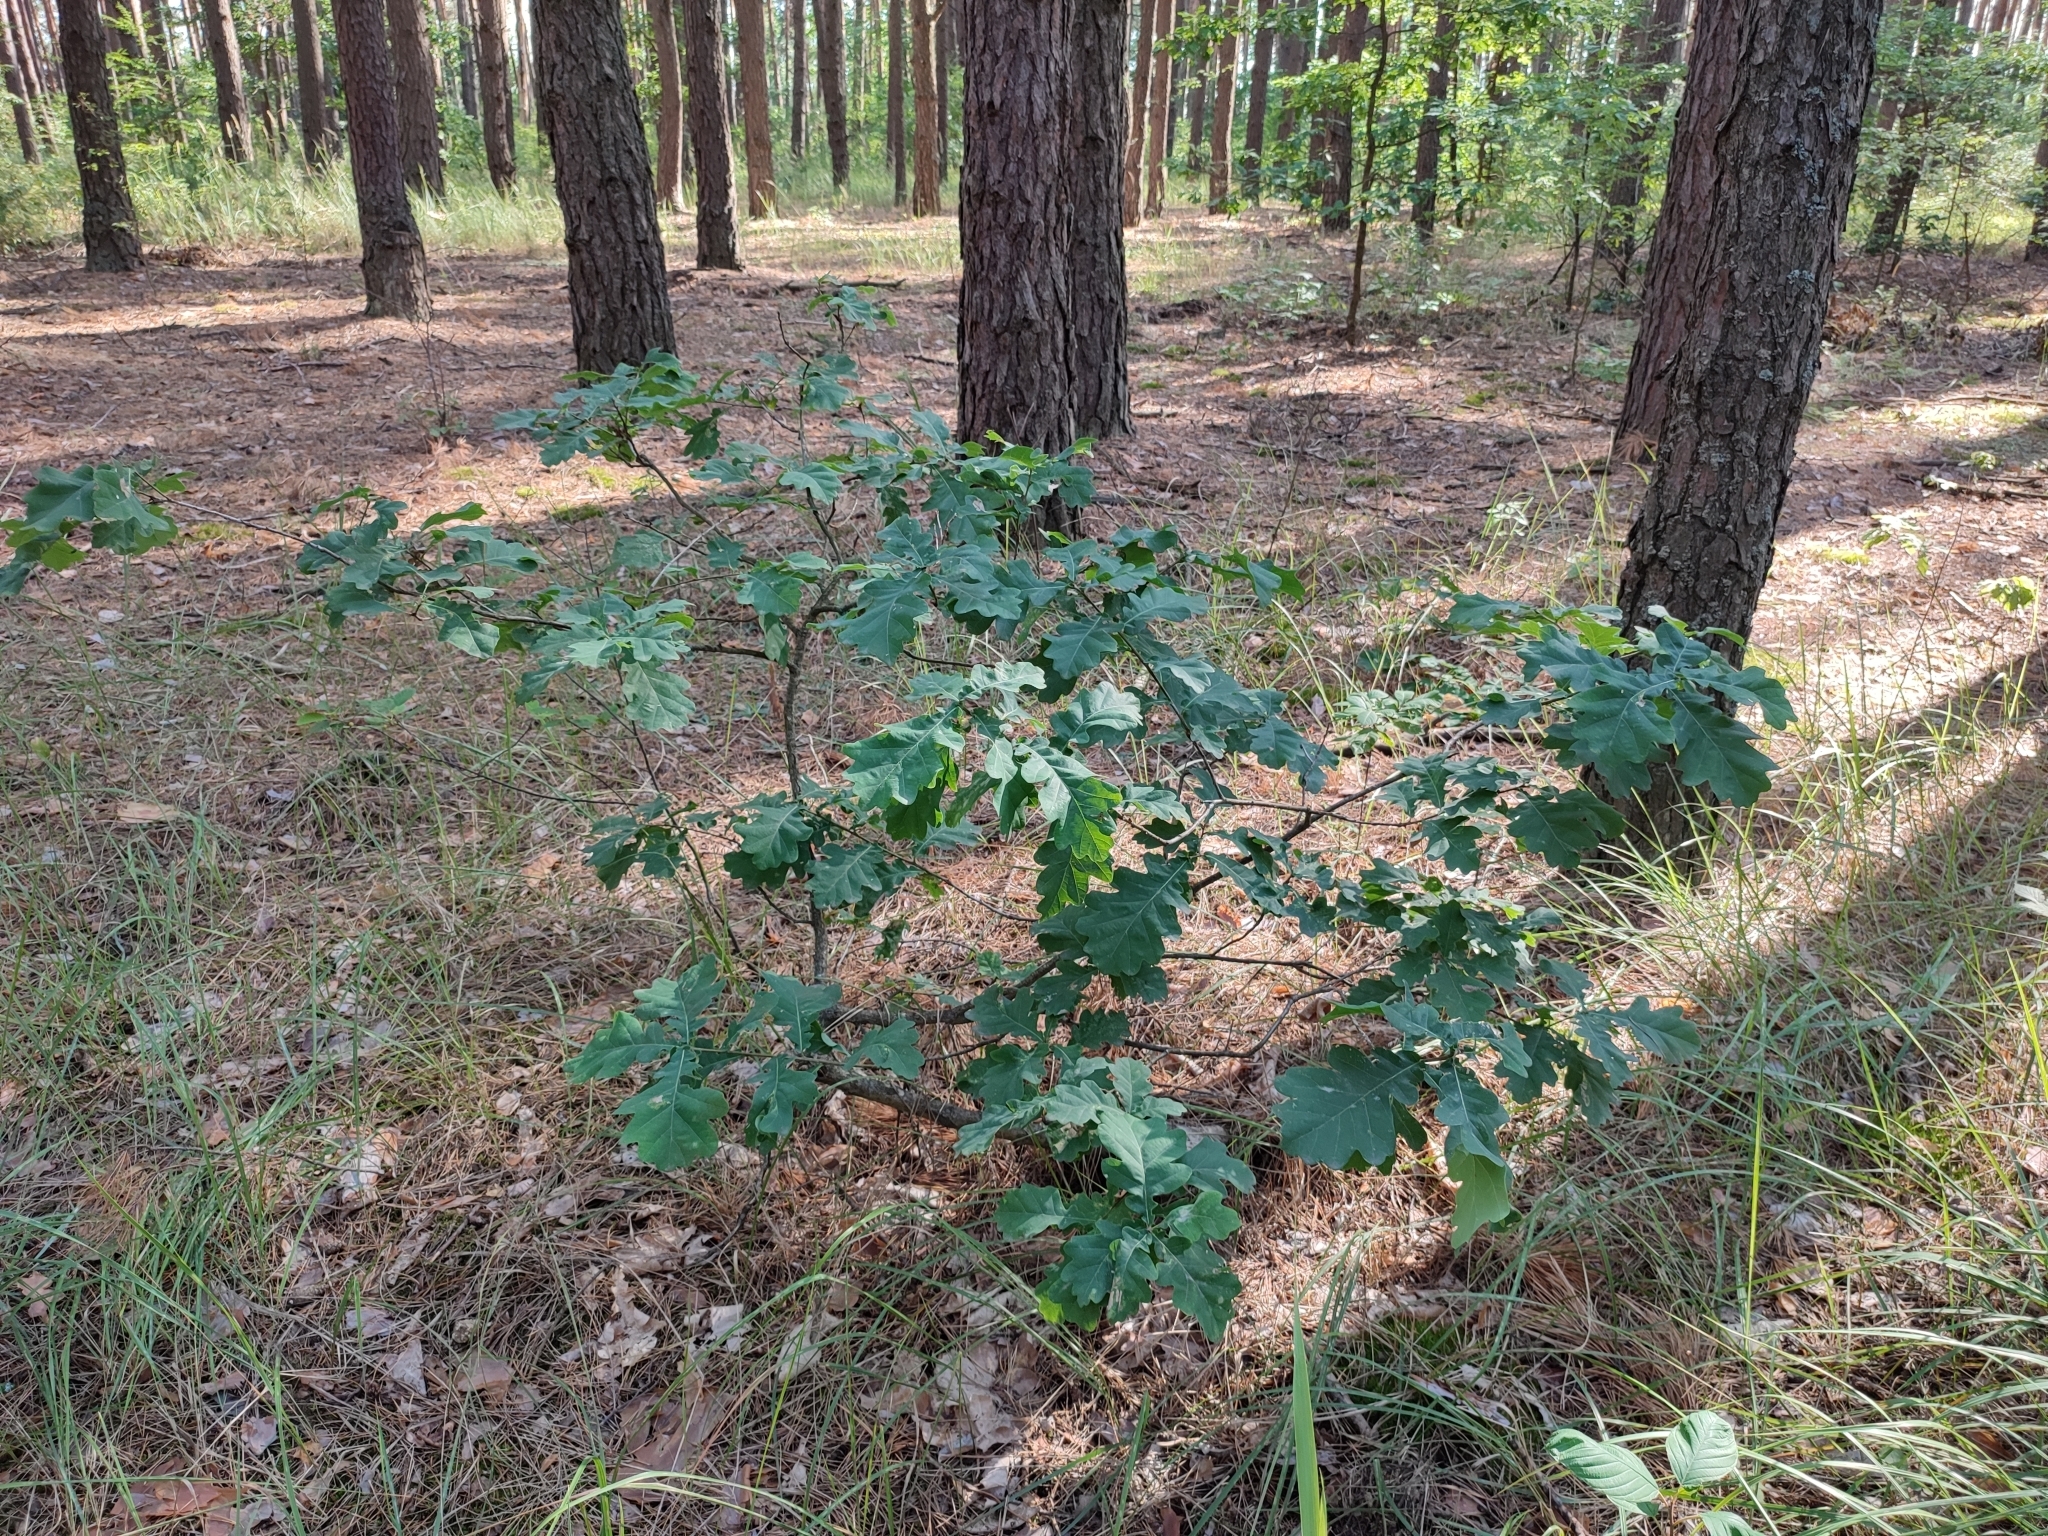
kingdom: Plantae
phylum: Tracheophyta
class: Magnoliopsida
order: Fagales
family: Fagaceae
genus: Quercus
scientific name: Quercus robur
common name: Pedunculate oak
